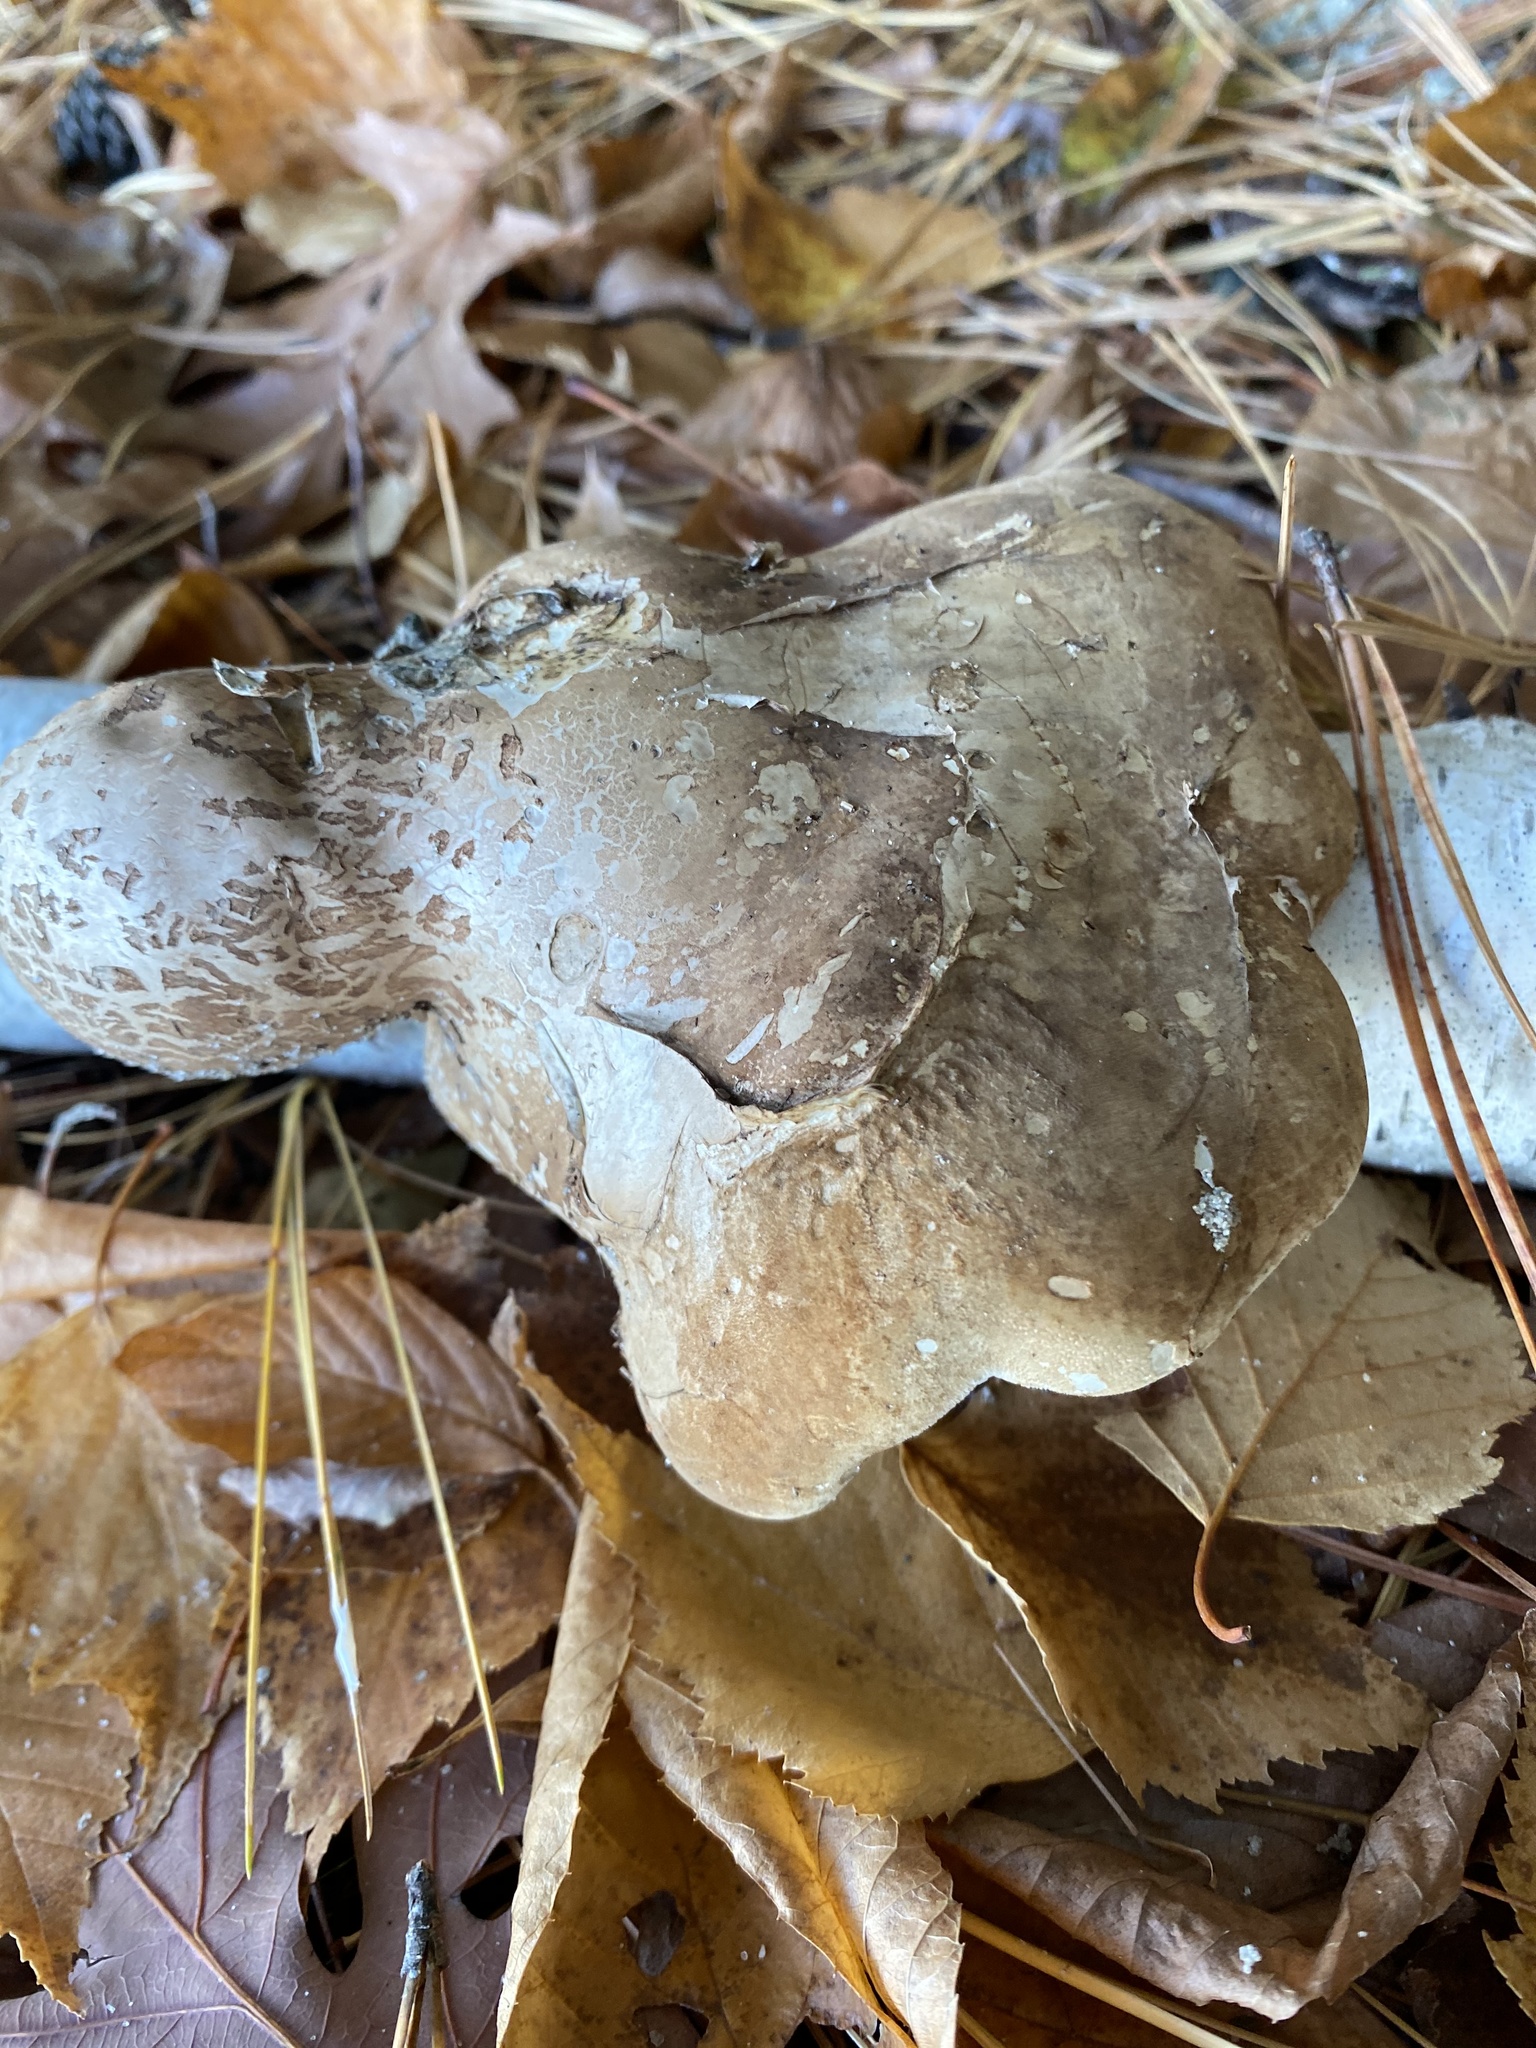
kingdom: Fungi
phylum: Basidiomycota
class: Agaricomycetes
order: Polyporales
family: Fomitopsidaceae
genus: Fomitopsis
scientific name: Fomitopsis betulina
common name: Birch polypore
